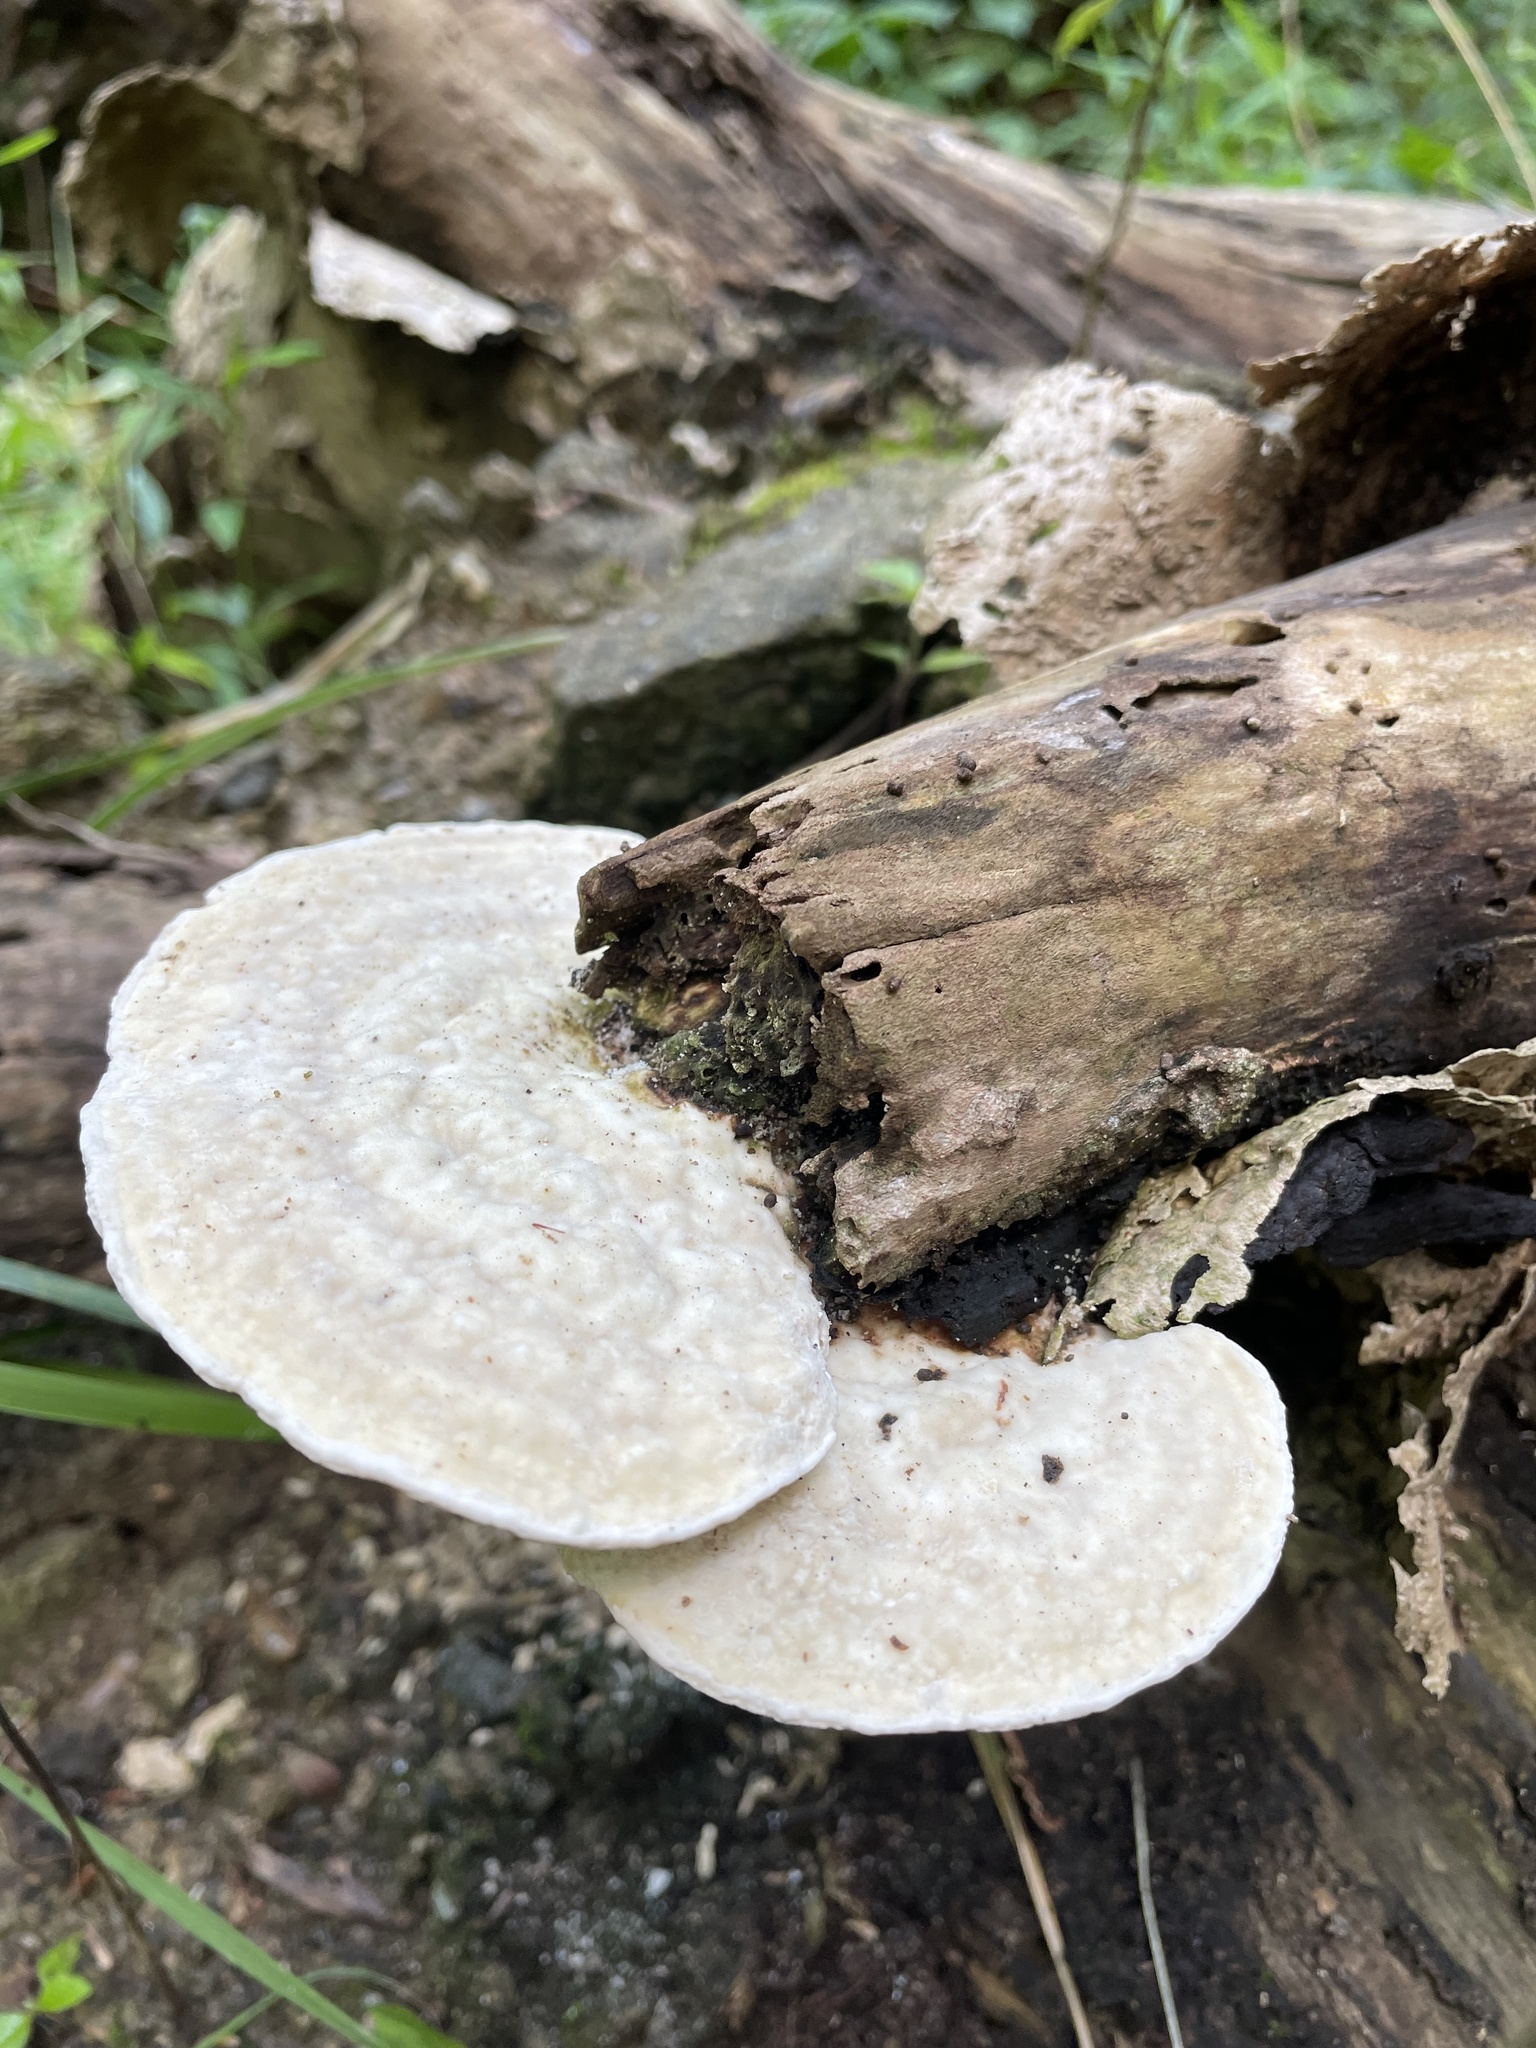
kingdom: Fungi
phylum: Basidiomycota
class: Agaricomycetes
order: Polyporales
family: Polyporaceae
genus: Trametes
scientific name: Trametes gibbosa
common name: Lumpy bracket
